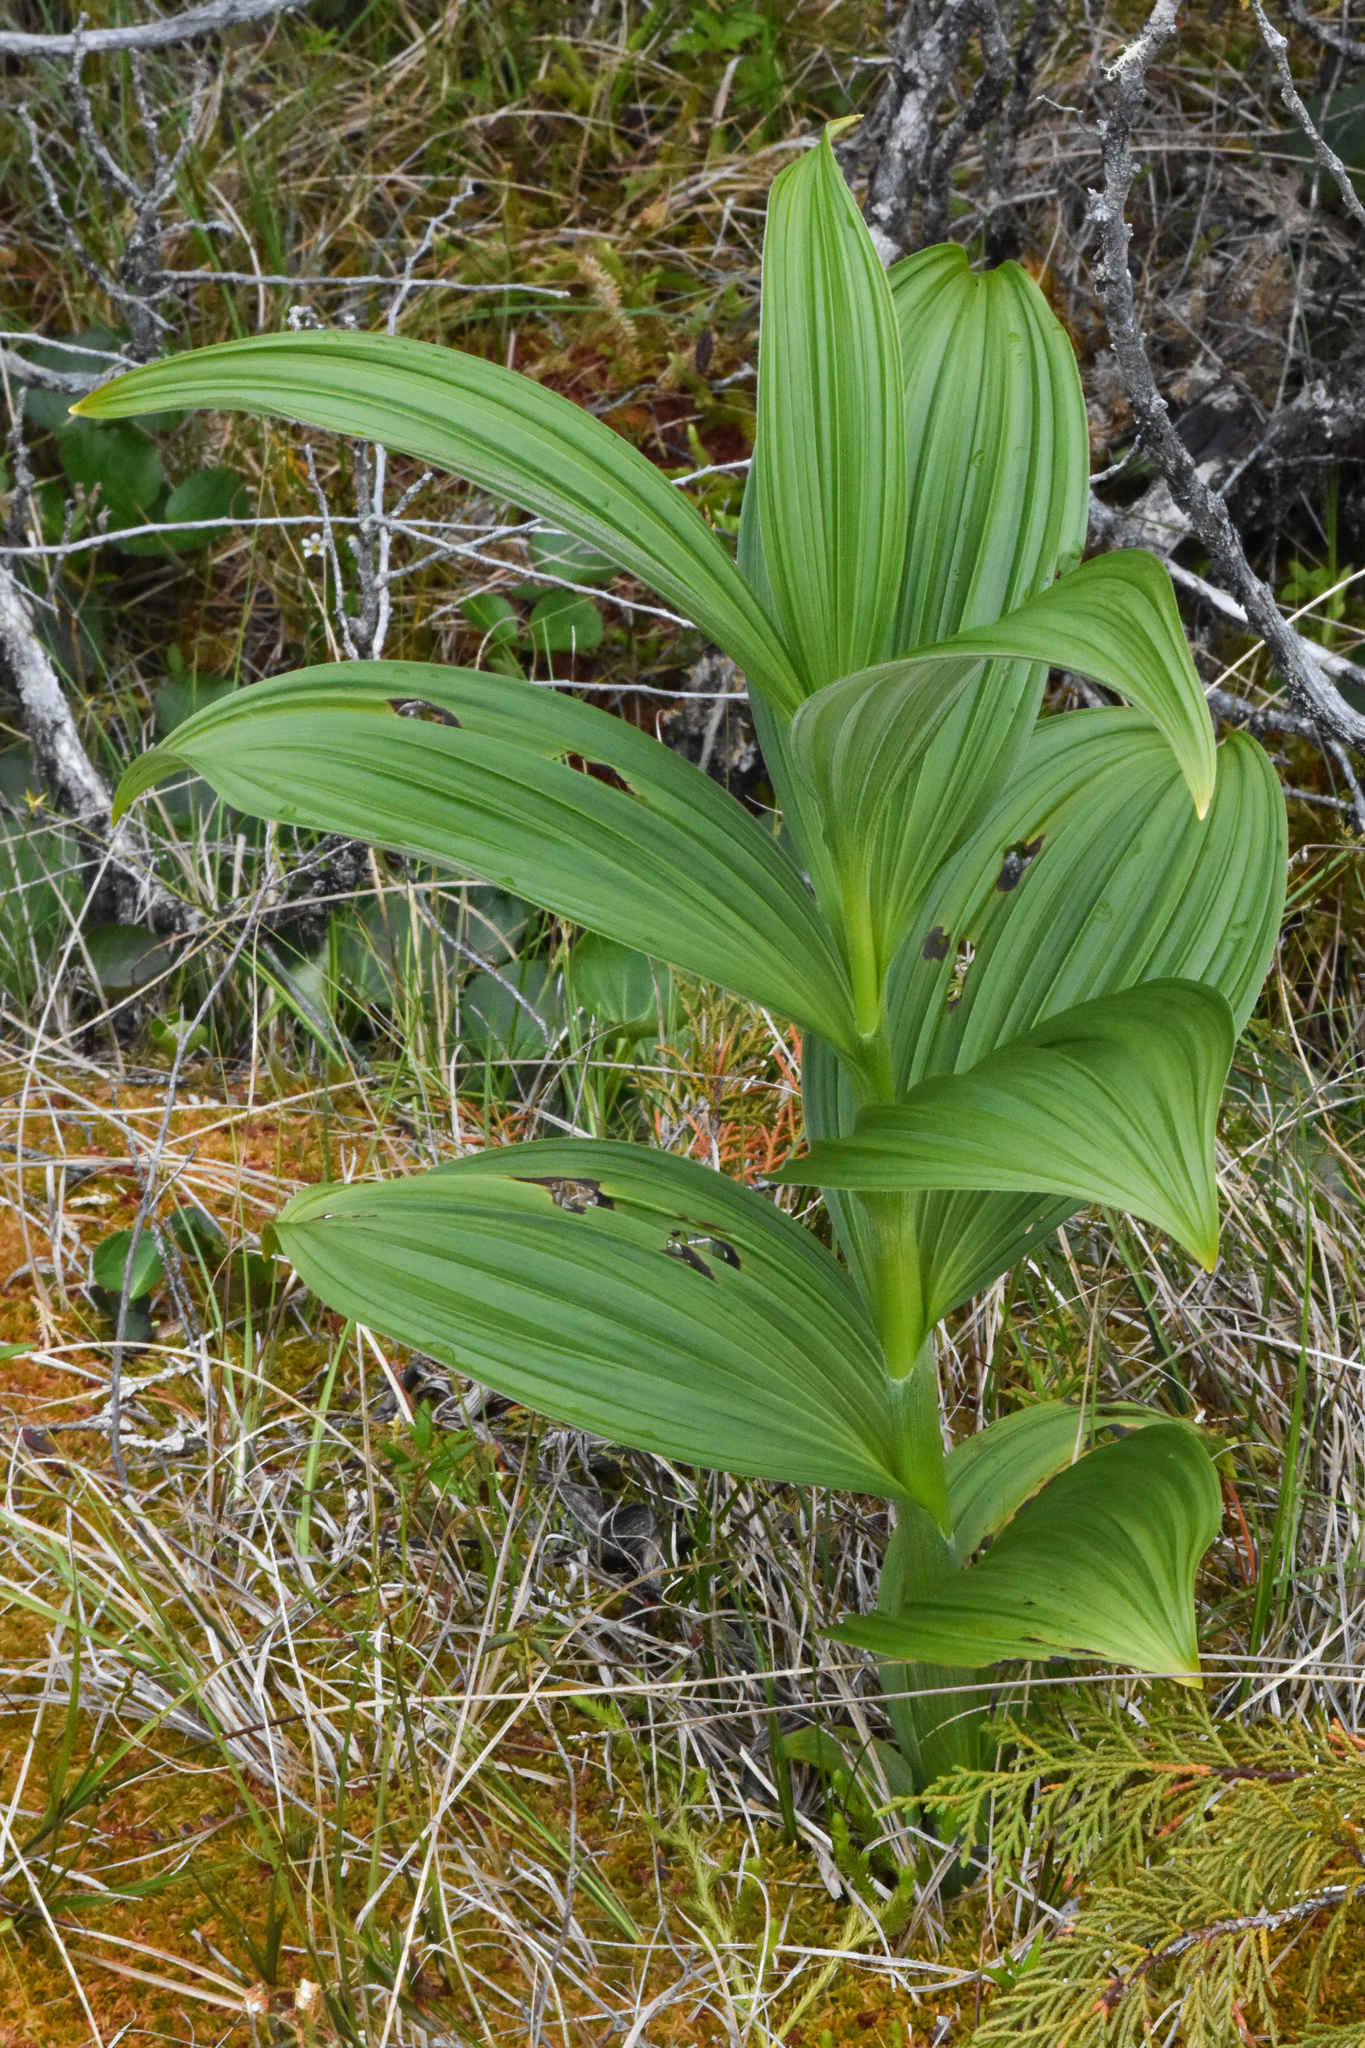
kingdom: Plantae
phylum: Tracheophyta
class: Liliopsida
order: Liliales
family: Melanthiaceae
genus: Veratrum
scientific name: Veratrum viride
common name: American false hellebore
